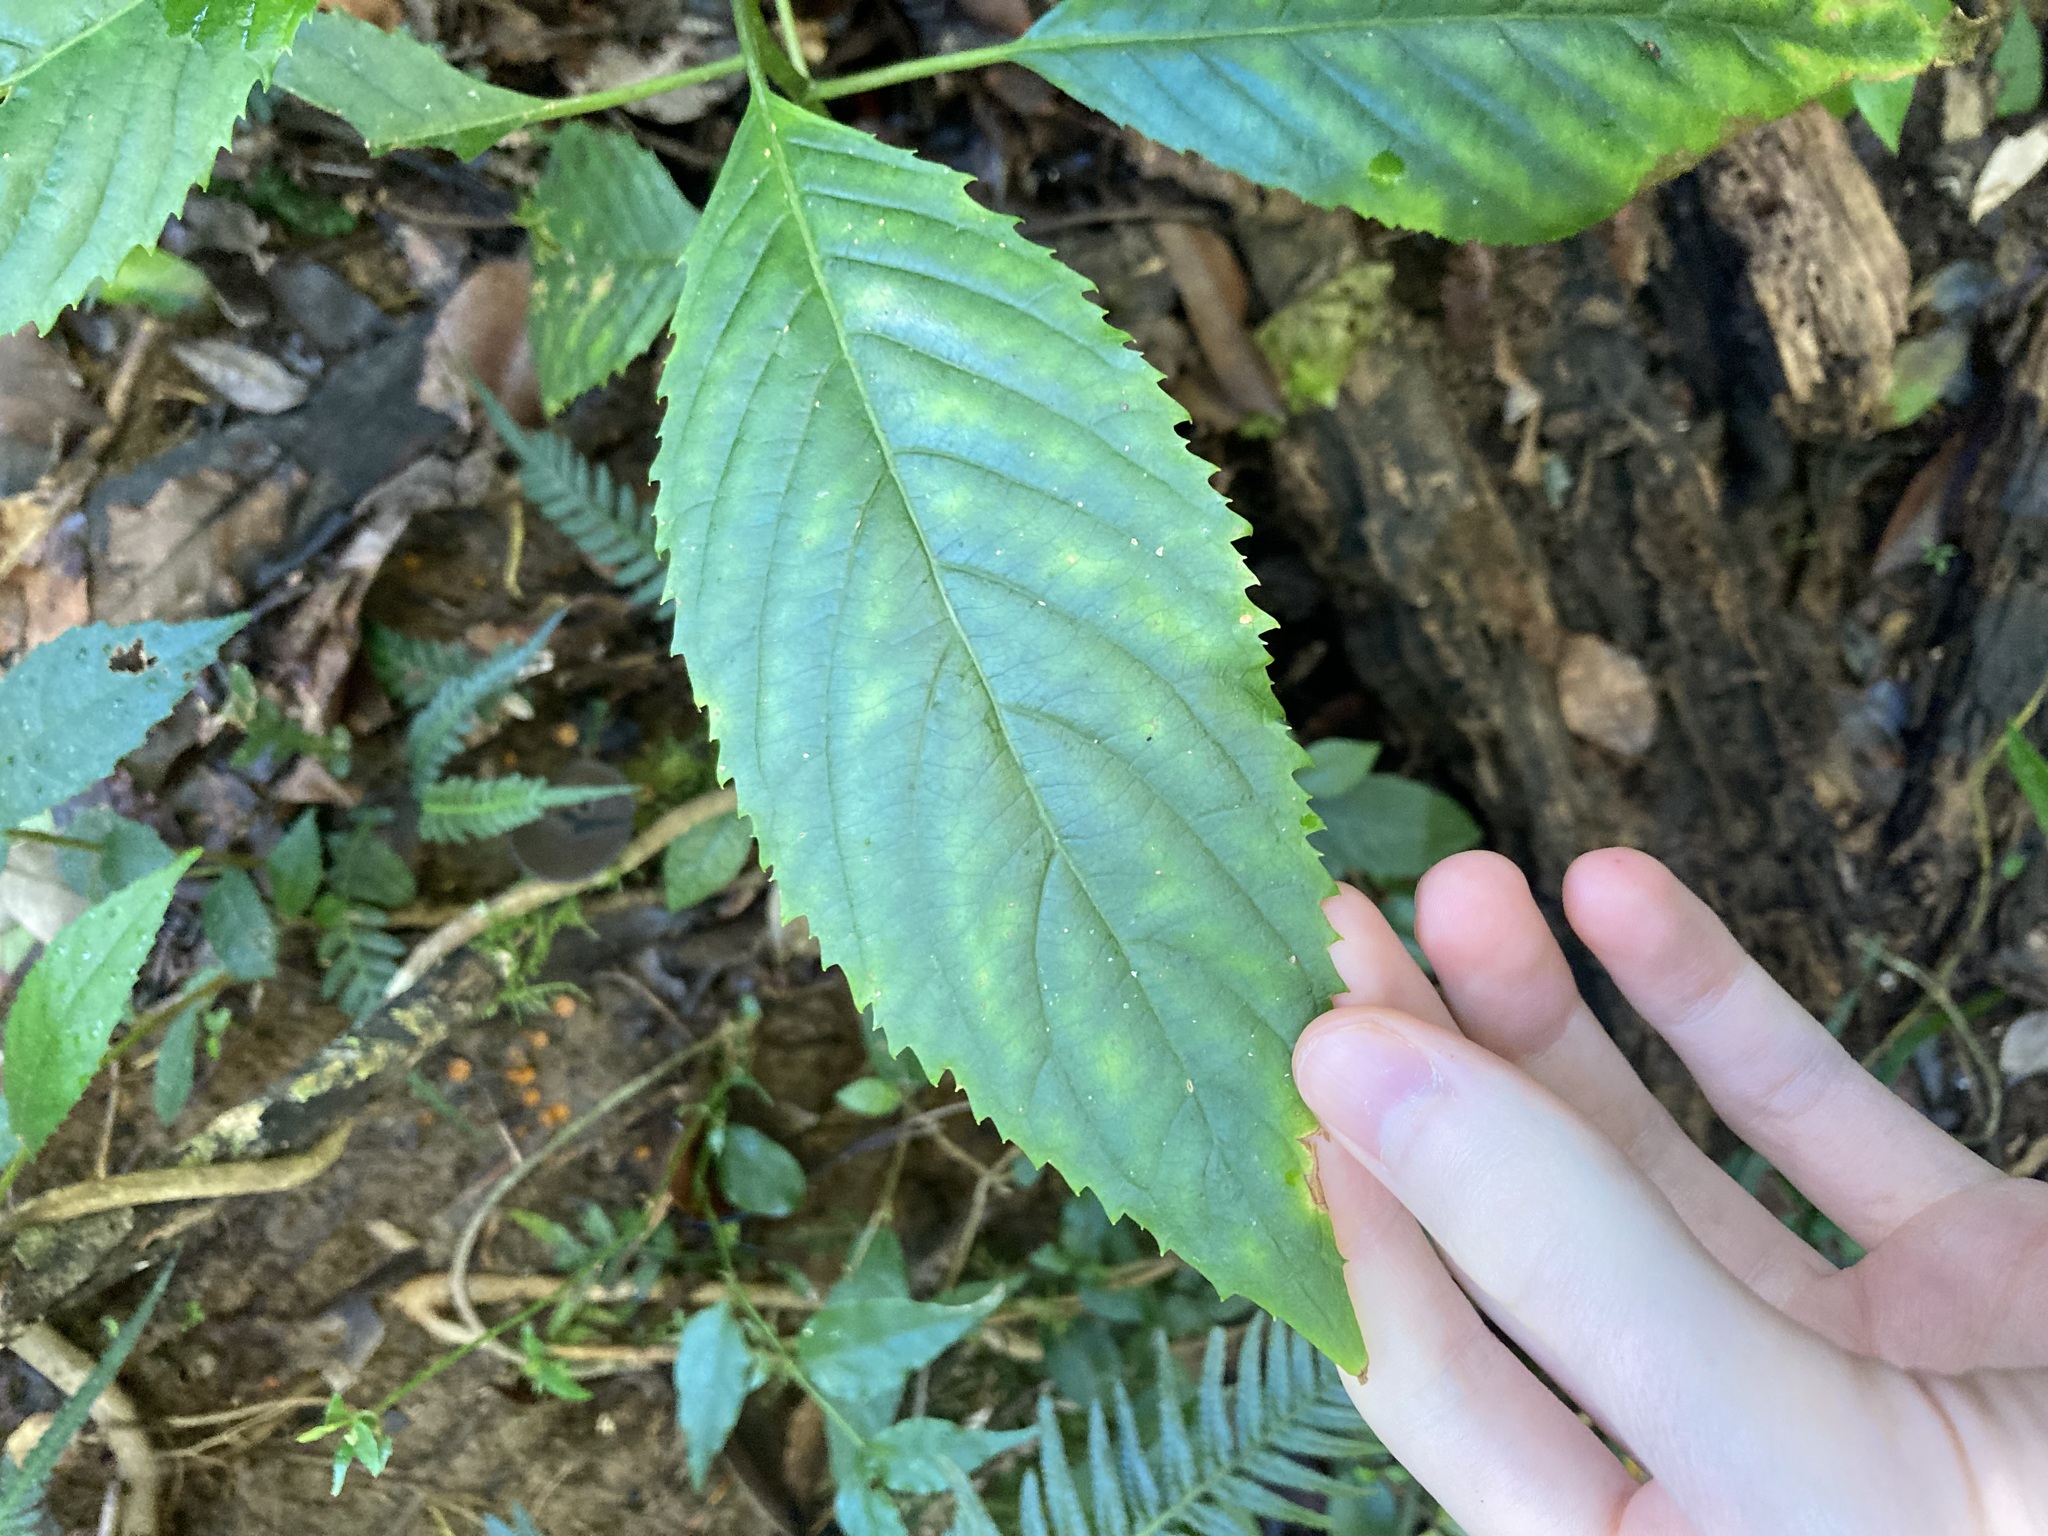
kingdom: Plantae
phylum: Tracheophyta
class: Magnoliopsida
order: Asterales
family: Rousseaceae
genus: Abrophyllum
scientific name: Abrophyllum ornans
